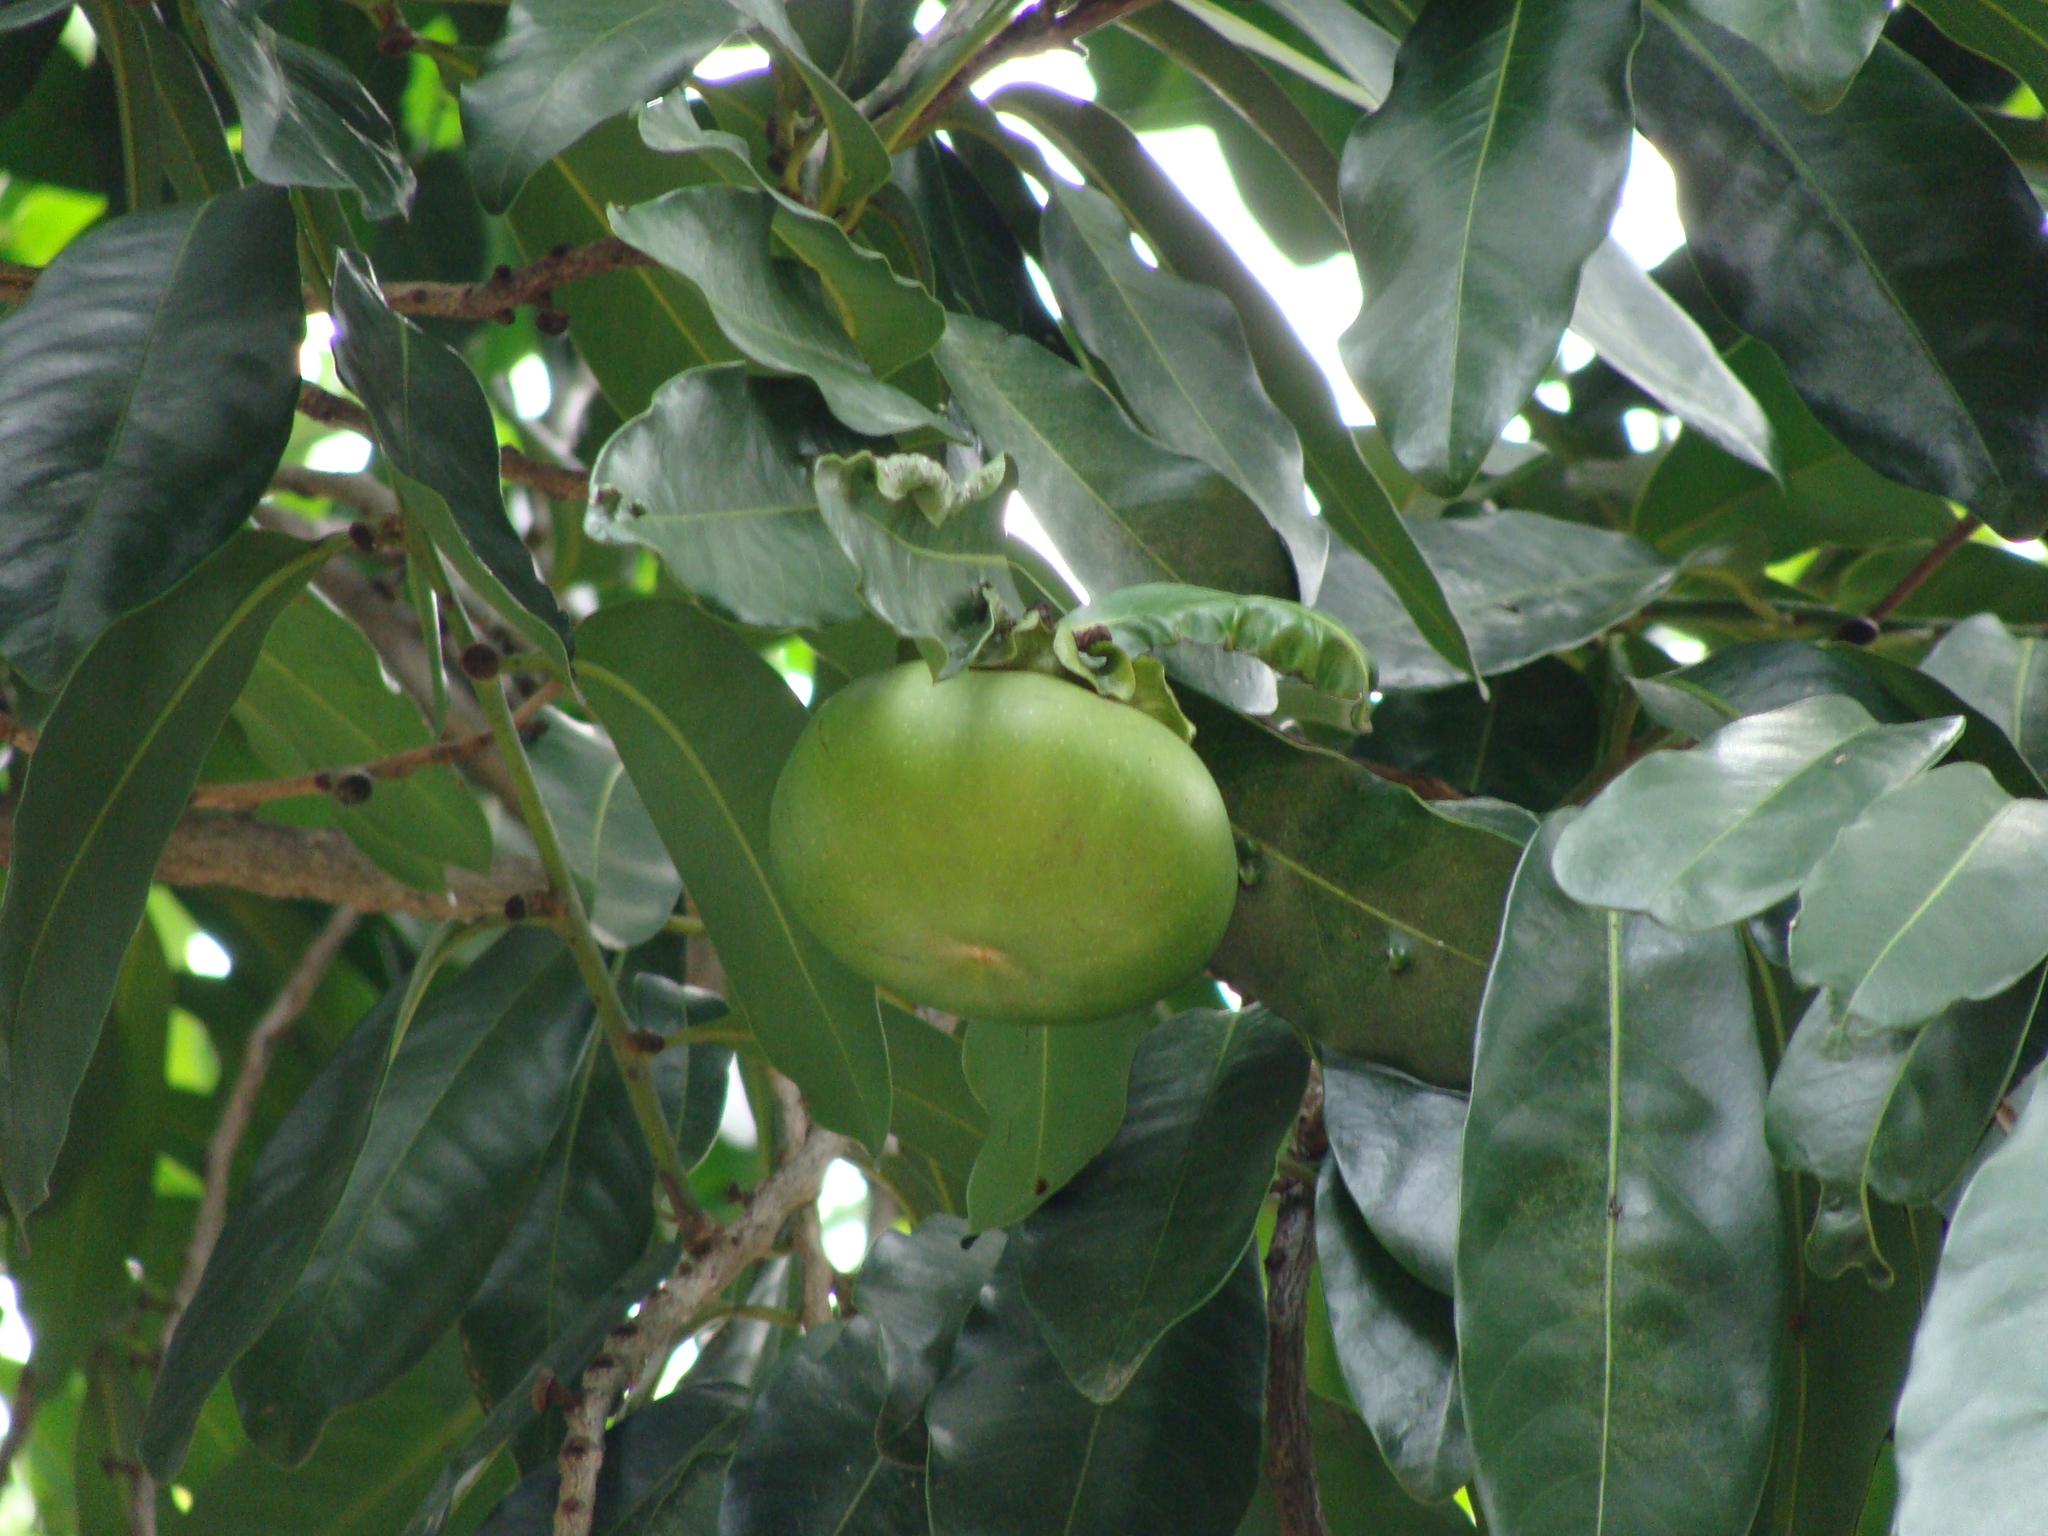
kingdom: Plantae
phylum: Tracheophyta
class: Magnoliopsida
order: Ericales
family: Ebenaceae
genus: Diospyros
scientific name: Diospyros nigra
